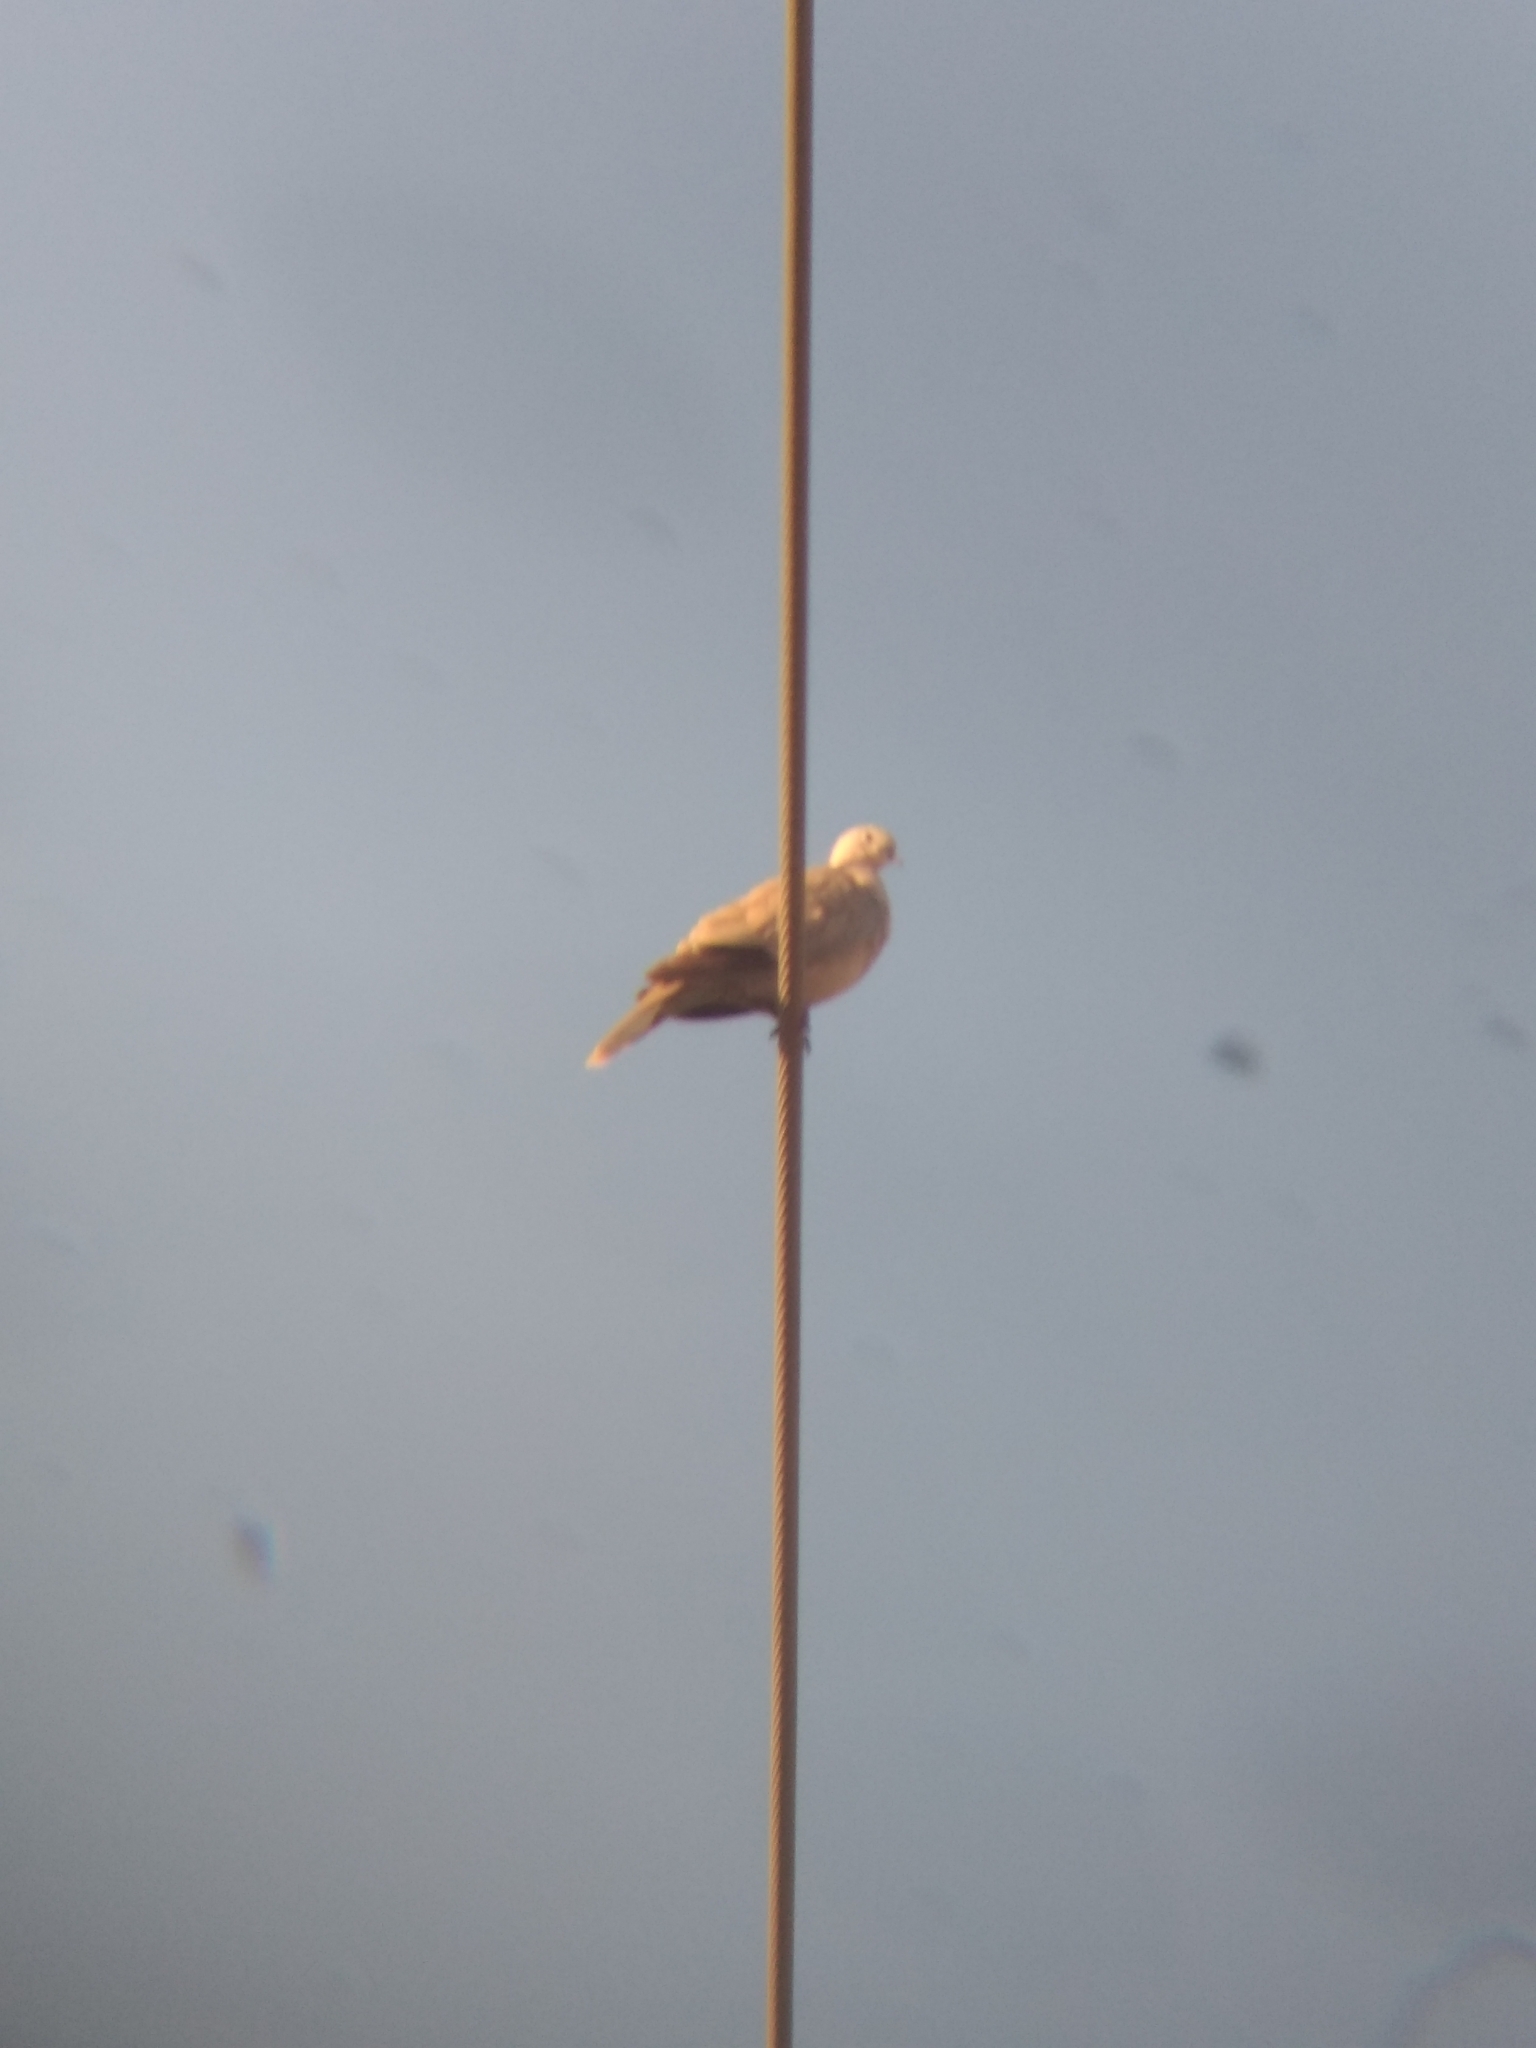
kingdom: Animalia
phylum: Chordata
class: Aves
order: Columbiformes
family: Columbidae
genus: Streptopelia
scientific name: Streptopelia decaocto
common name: Eurasian collared dove
